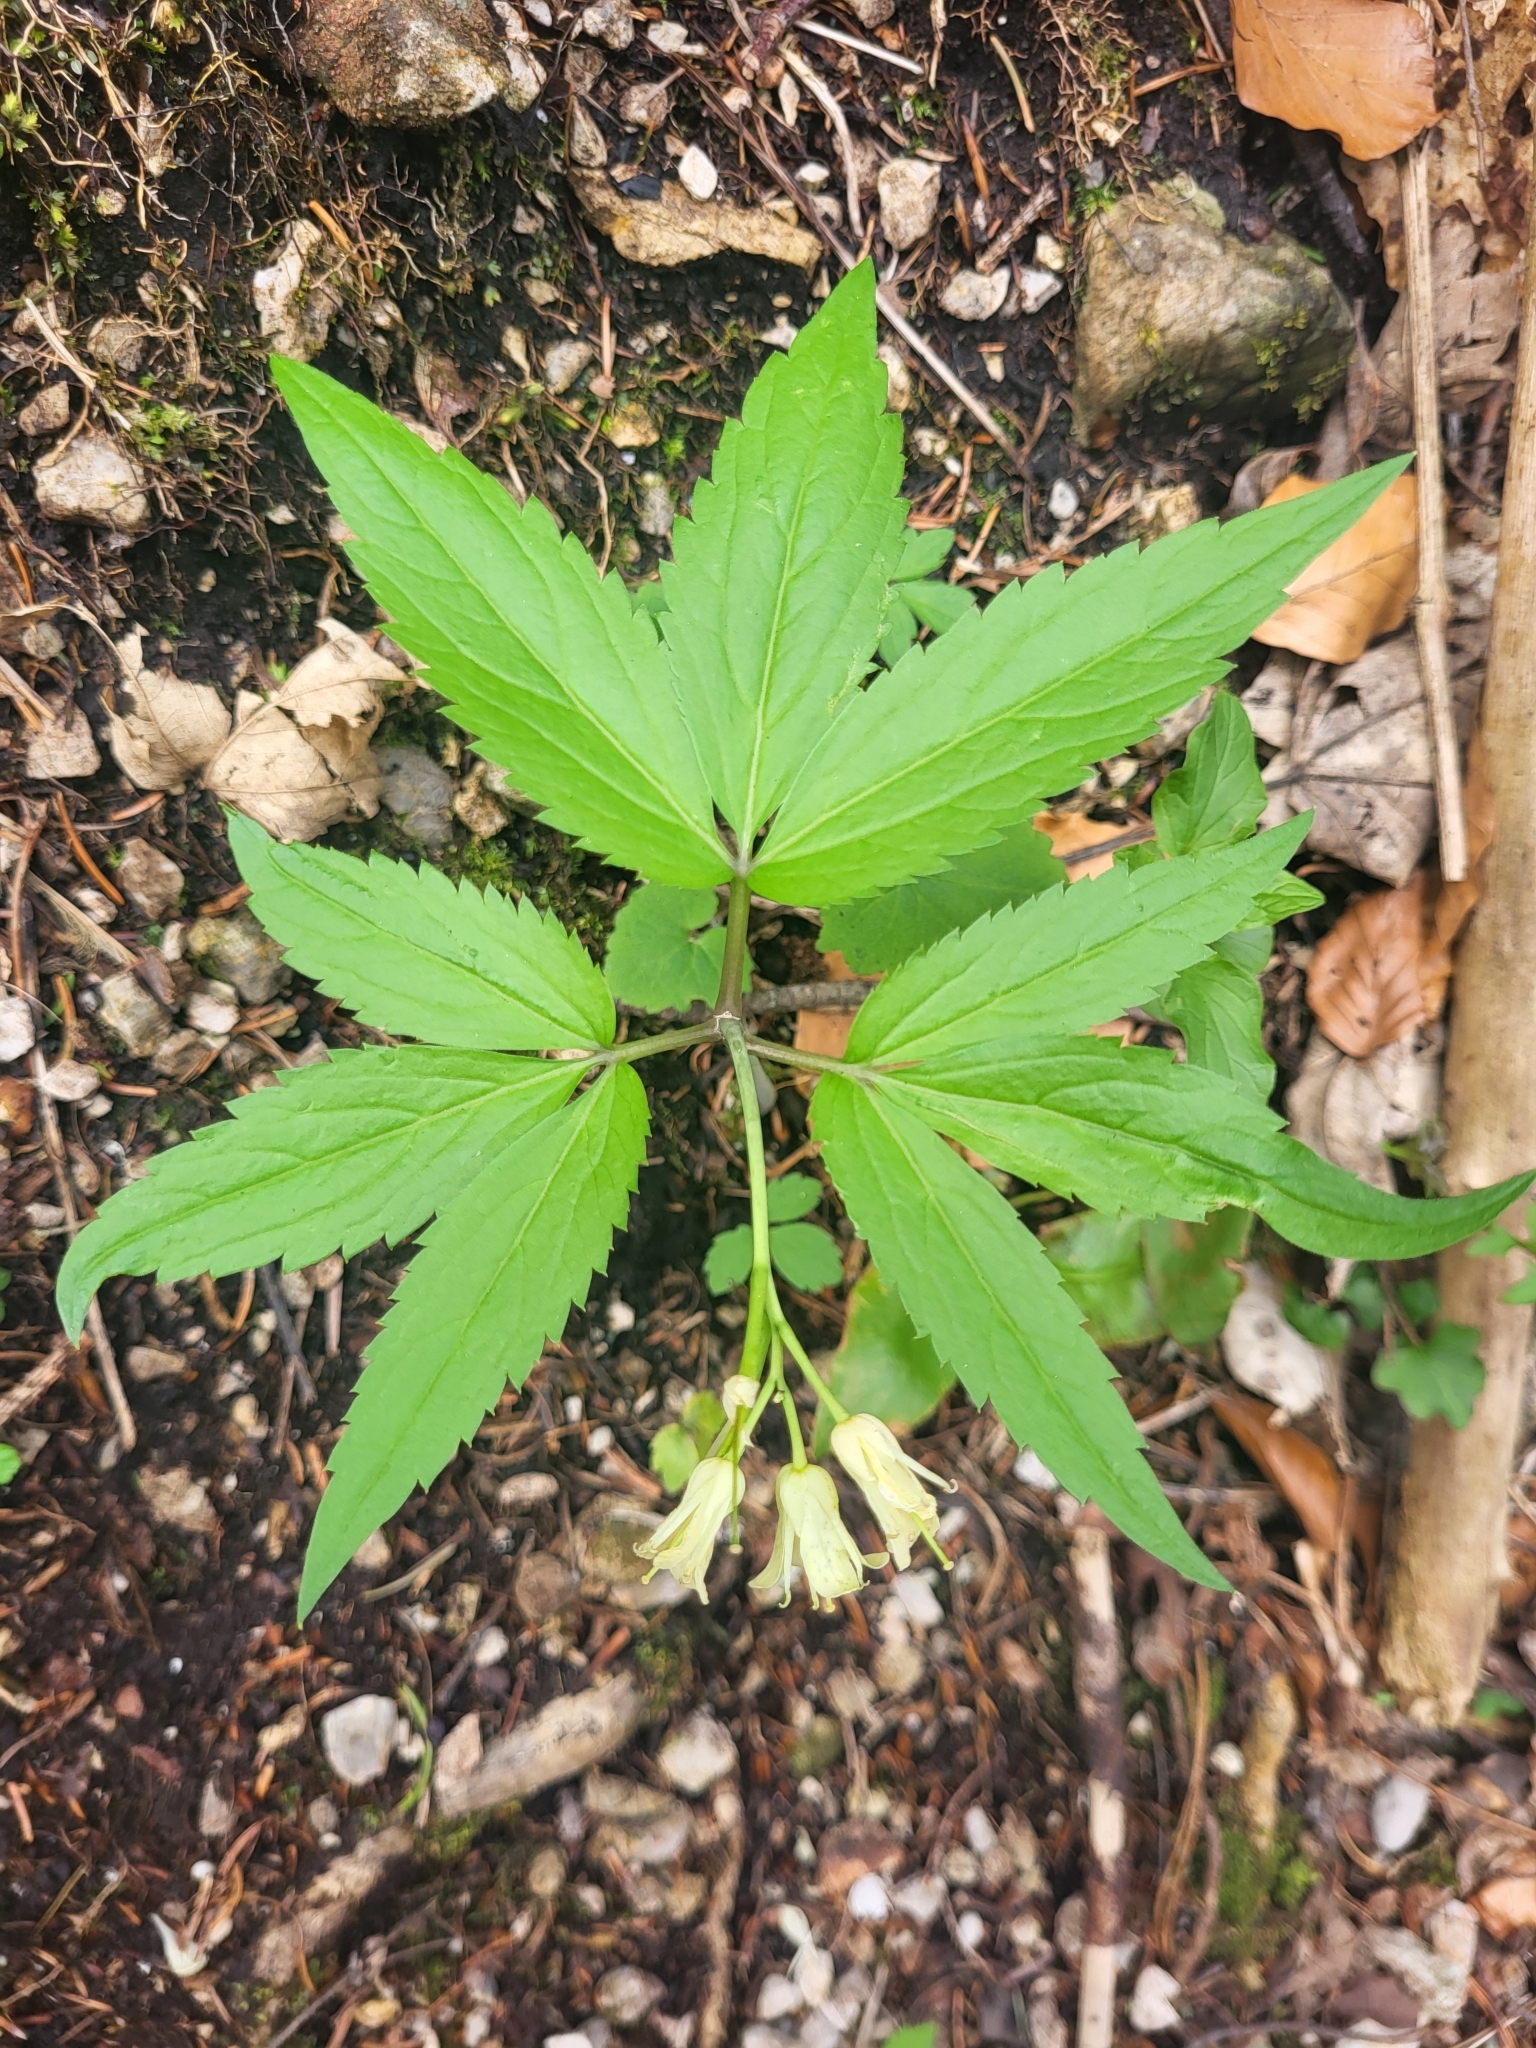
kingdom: Plantae
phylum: Tracheophyta
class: Magnoliopsida
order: Brassicales
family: Brassicaceae
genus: Cardamine
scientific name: Cardamine enneaphyllos
